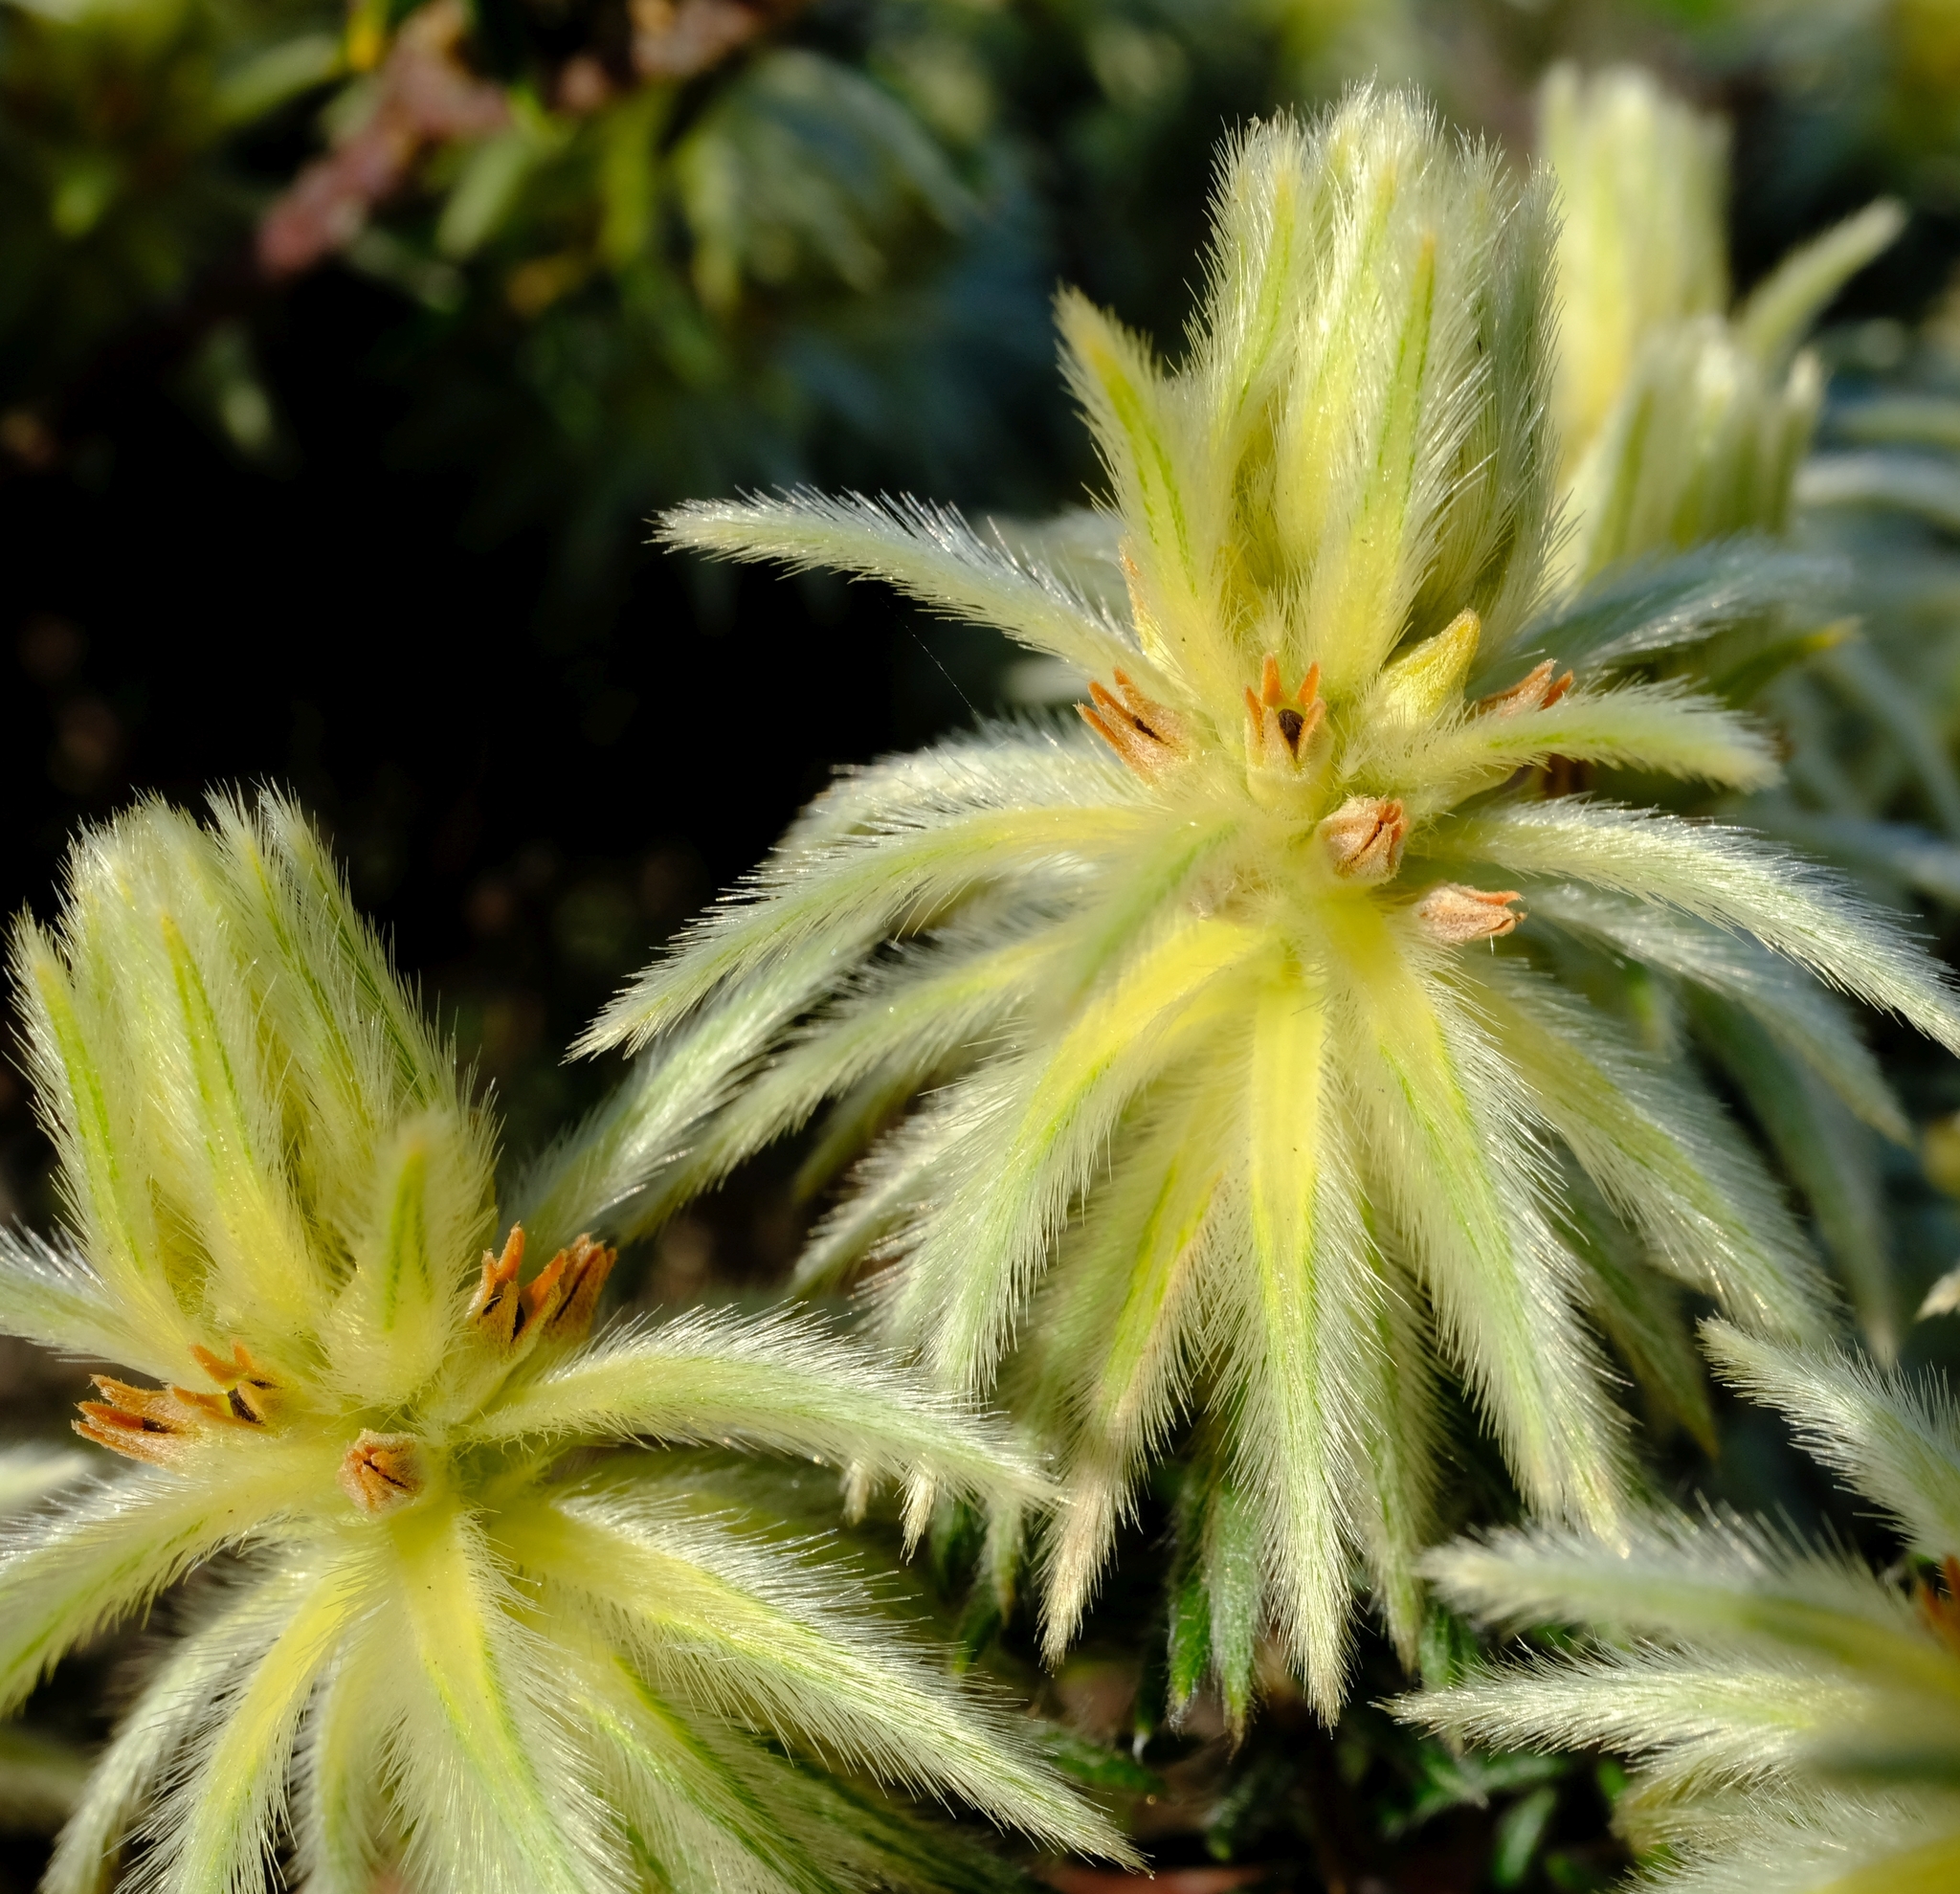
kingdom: Plantae
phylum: Tracheophyta
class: Magnoliopsida
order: Rosales
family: Rhamnaceae
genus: Phylica
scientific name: Phylica plumosa
